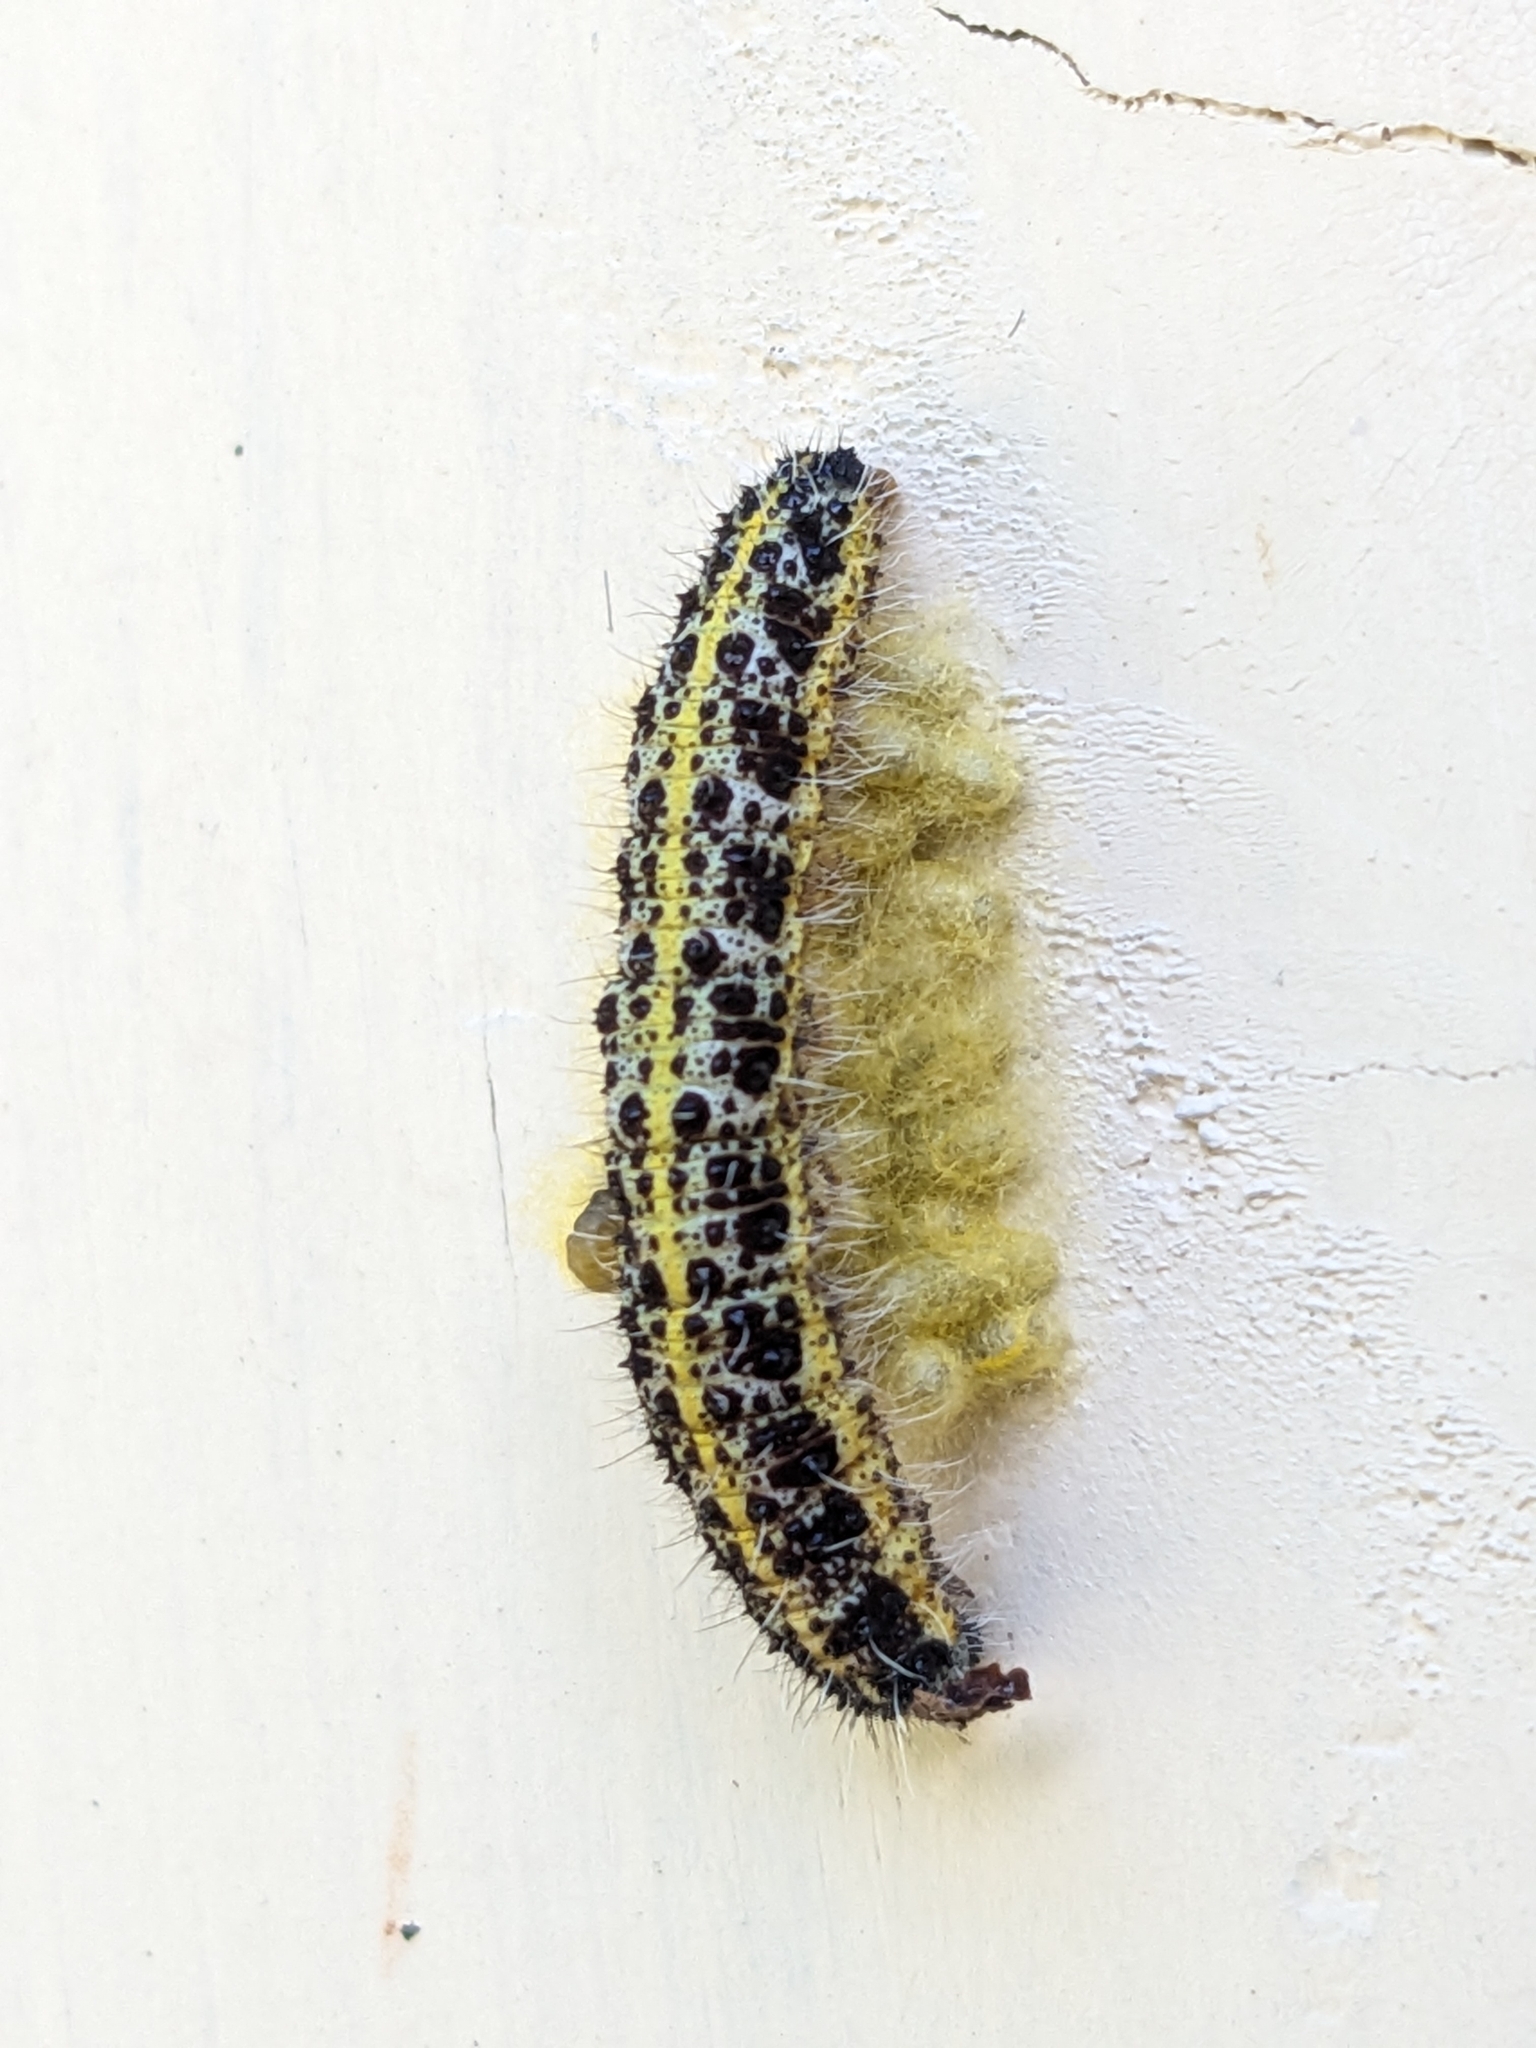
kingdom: Animalia
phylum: Arthropoda
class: Insecta
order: Hymenoptera
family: Braconidae
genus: Cotesia
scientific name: Cotesia glomerata
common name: Parasitoid wasp
